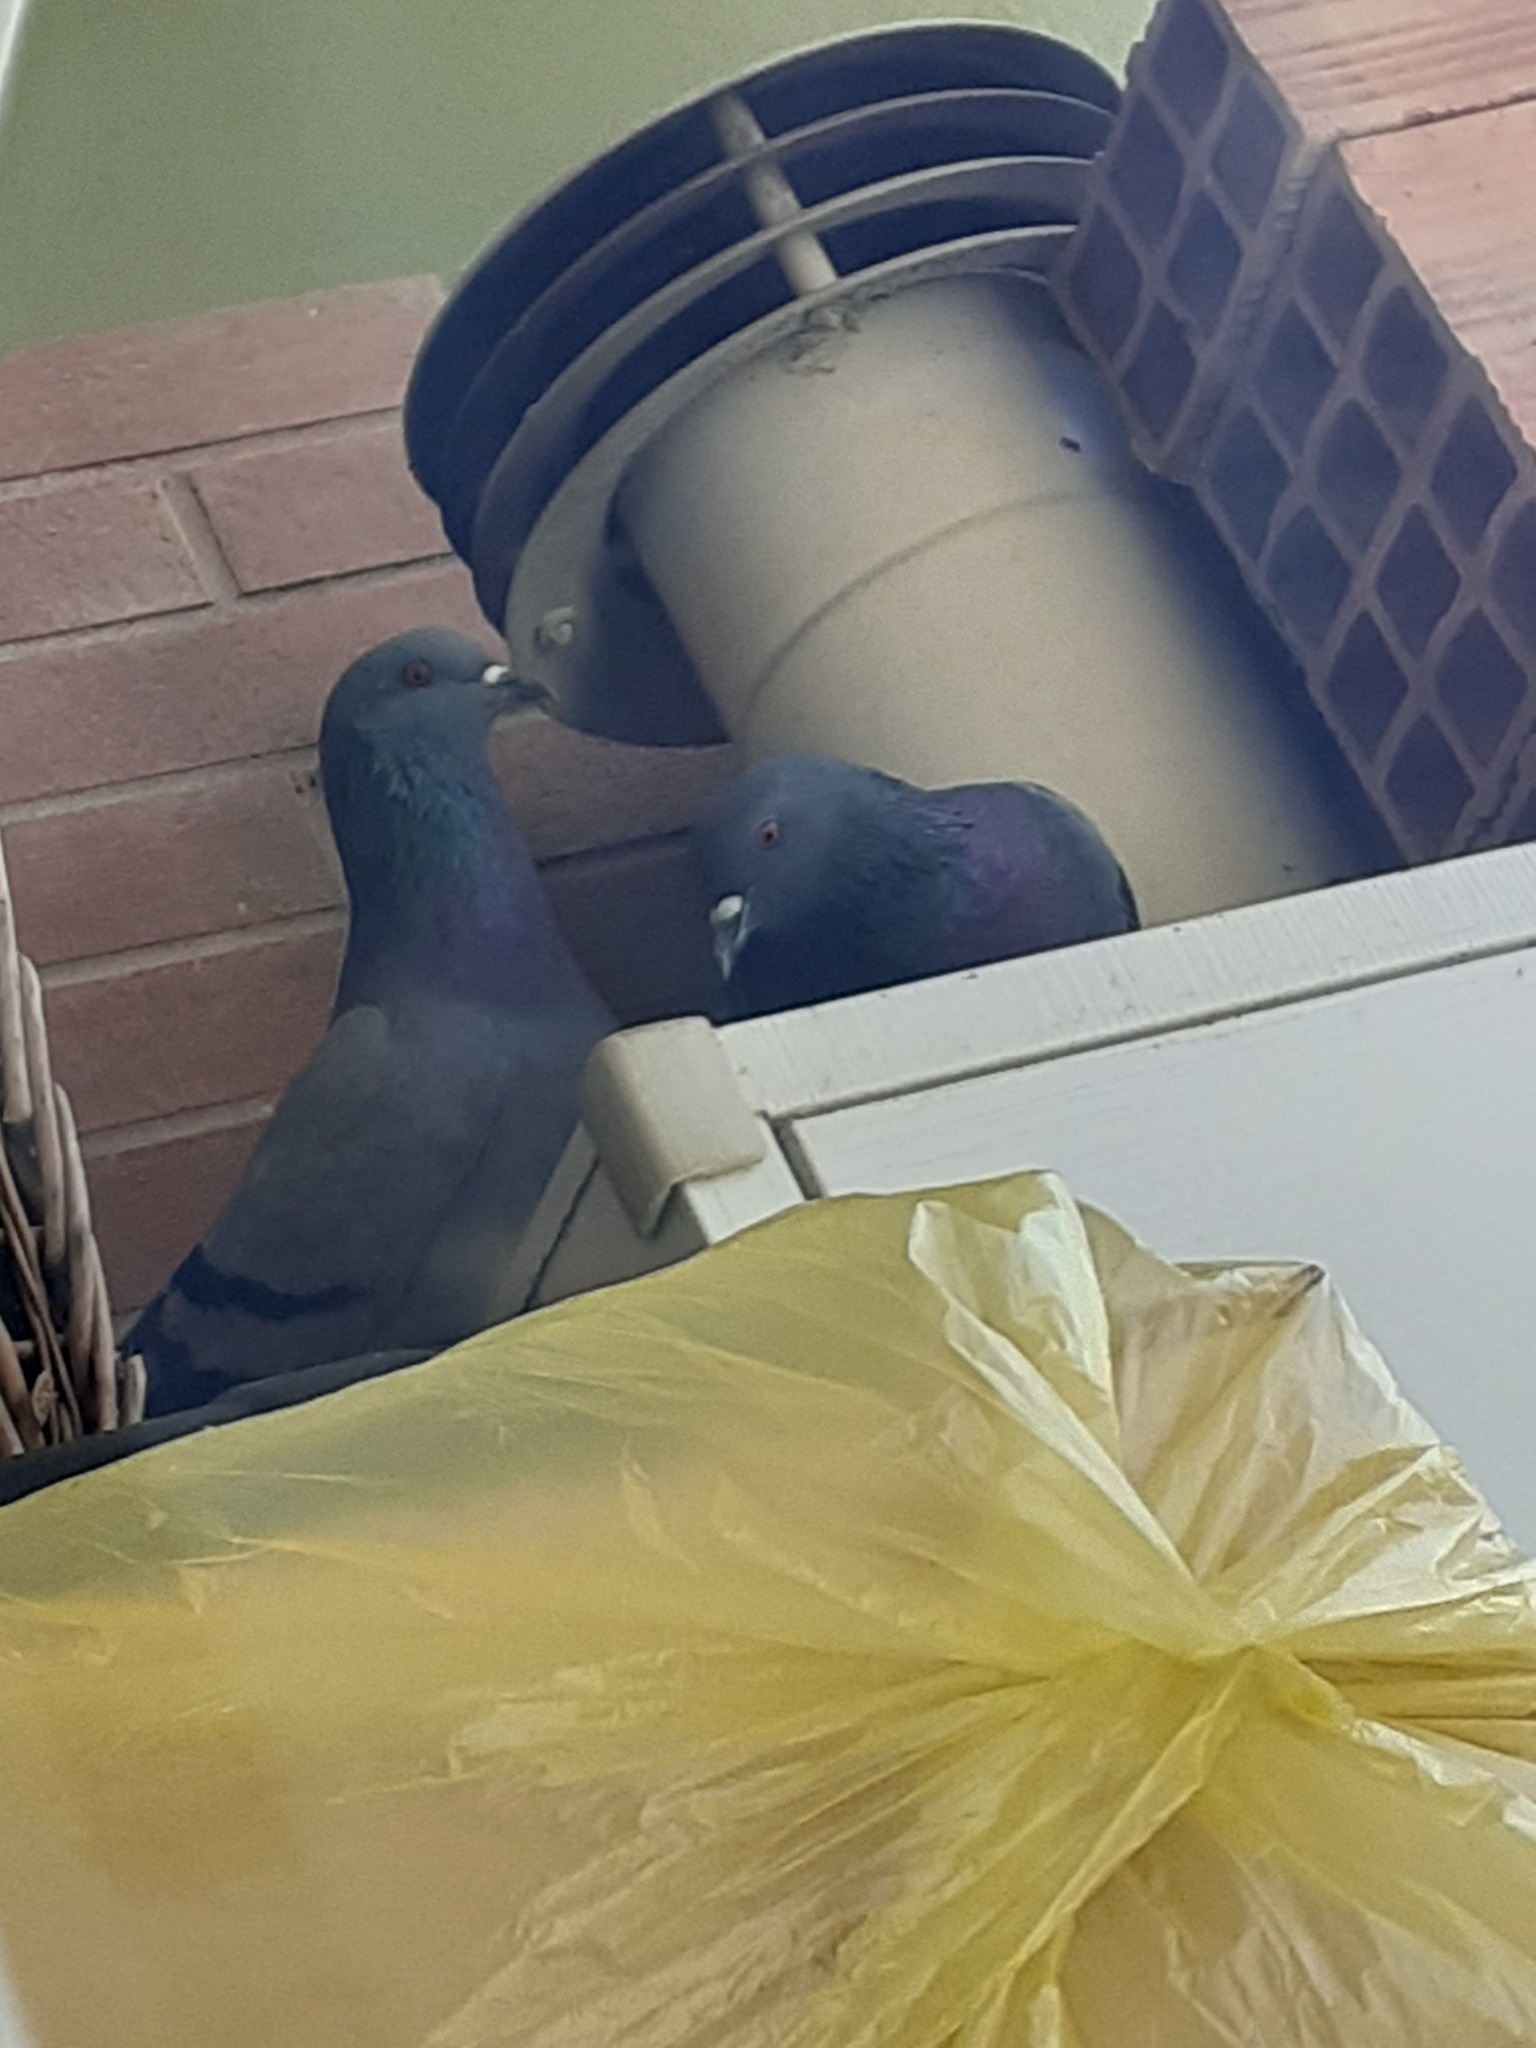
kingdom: Animalia
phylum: Chordata
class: Aves
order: Columbiformes
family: Columbidae
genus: Columba
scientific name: Columba livia
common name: Rock pigeon
